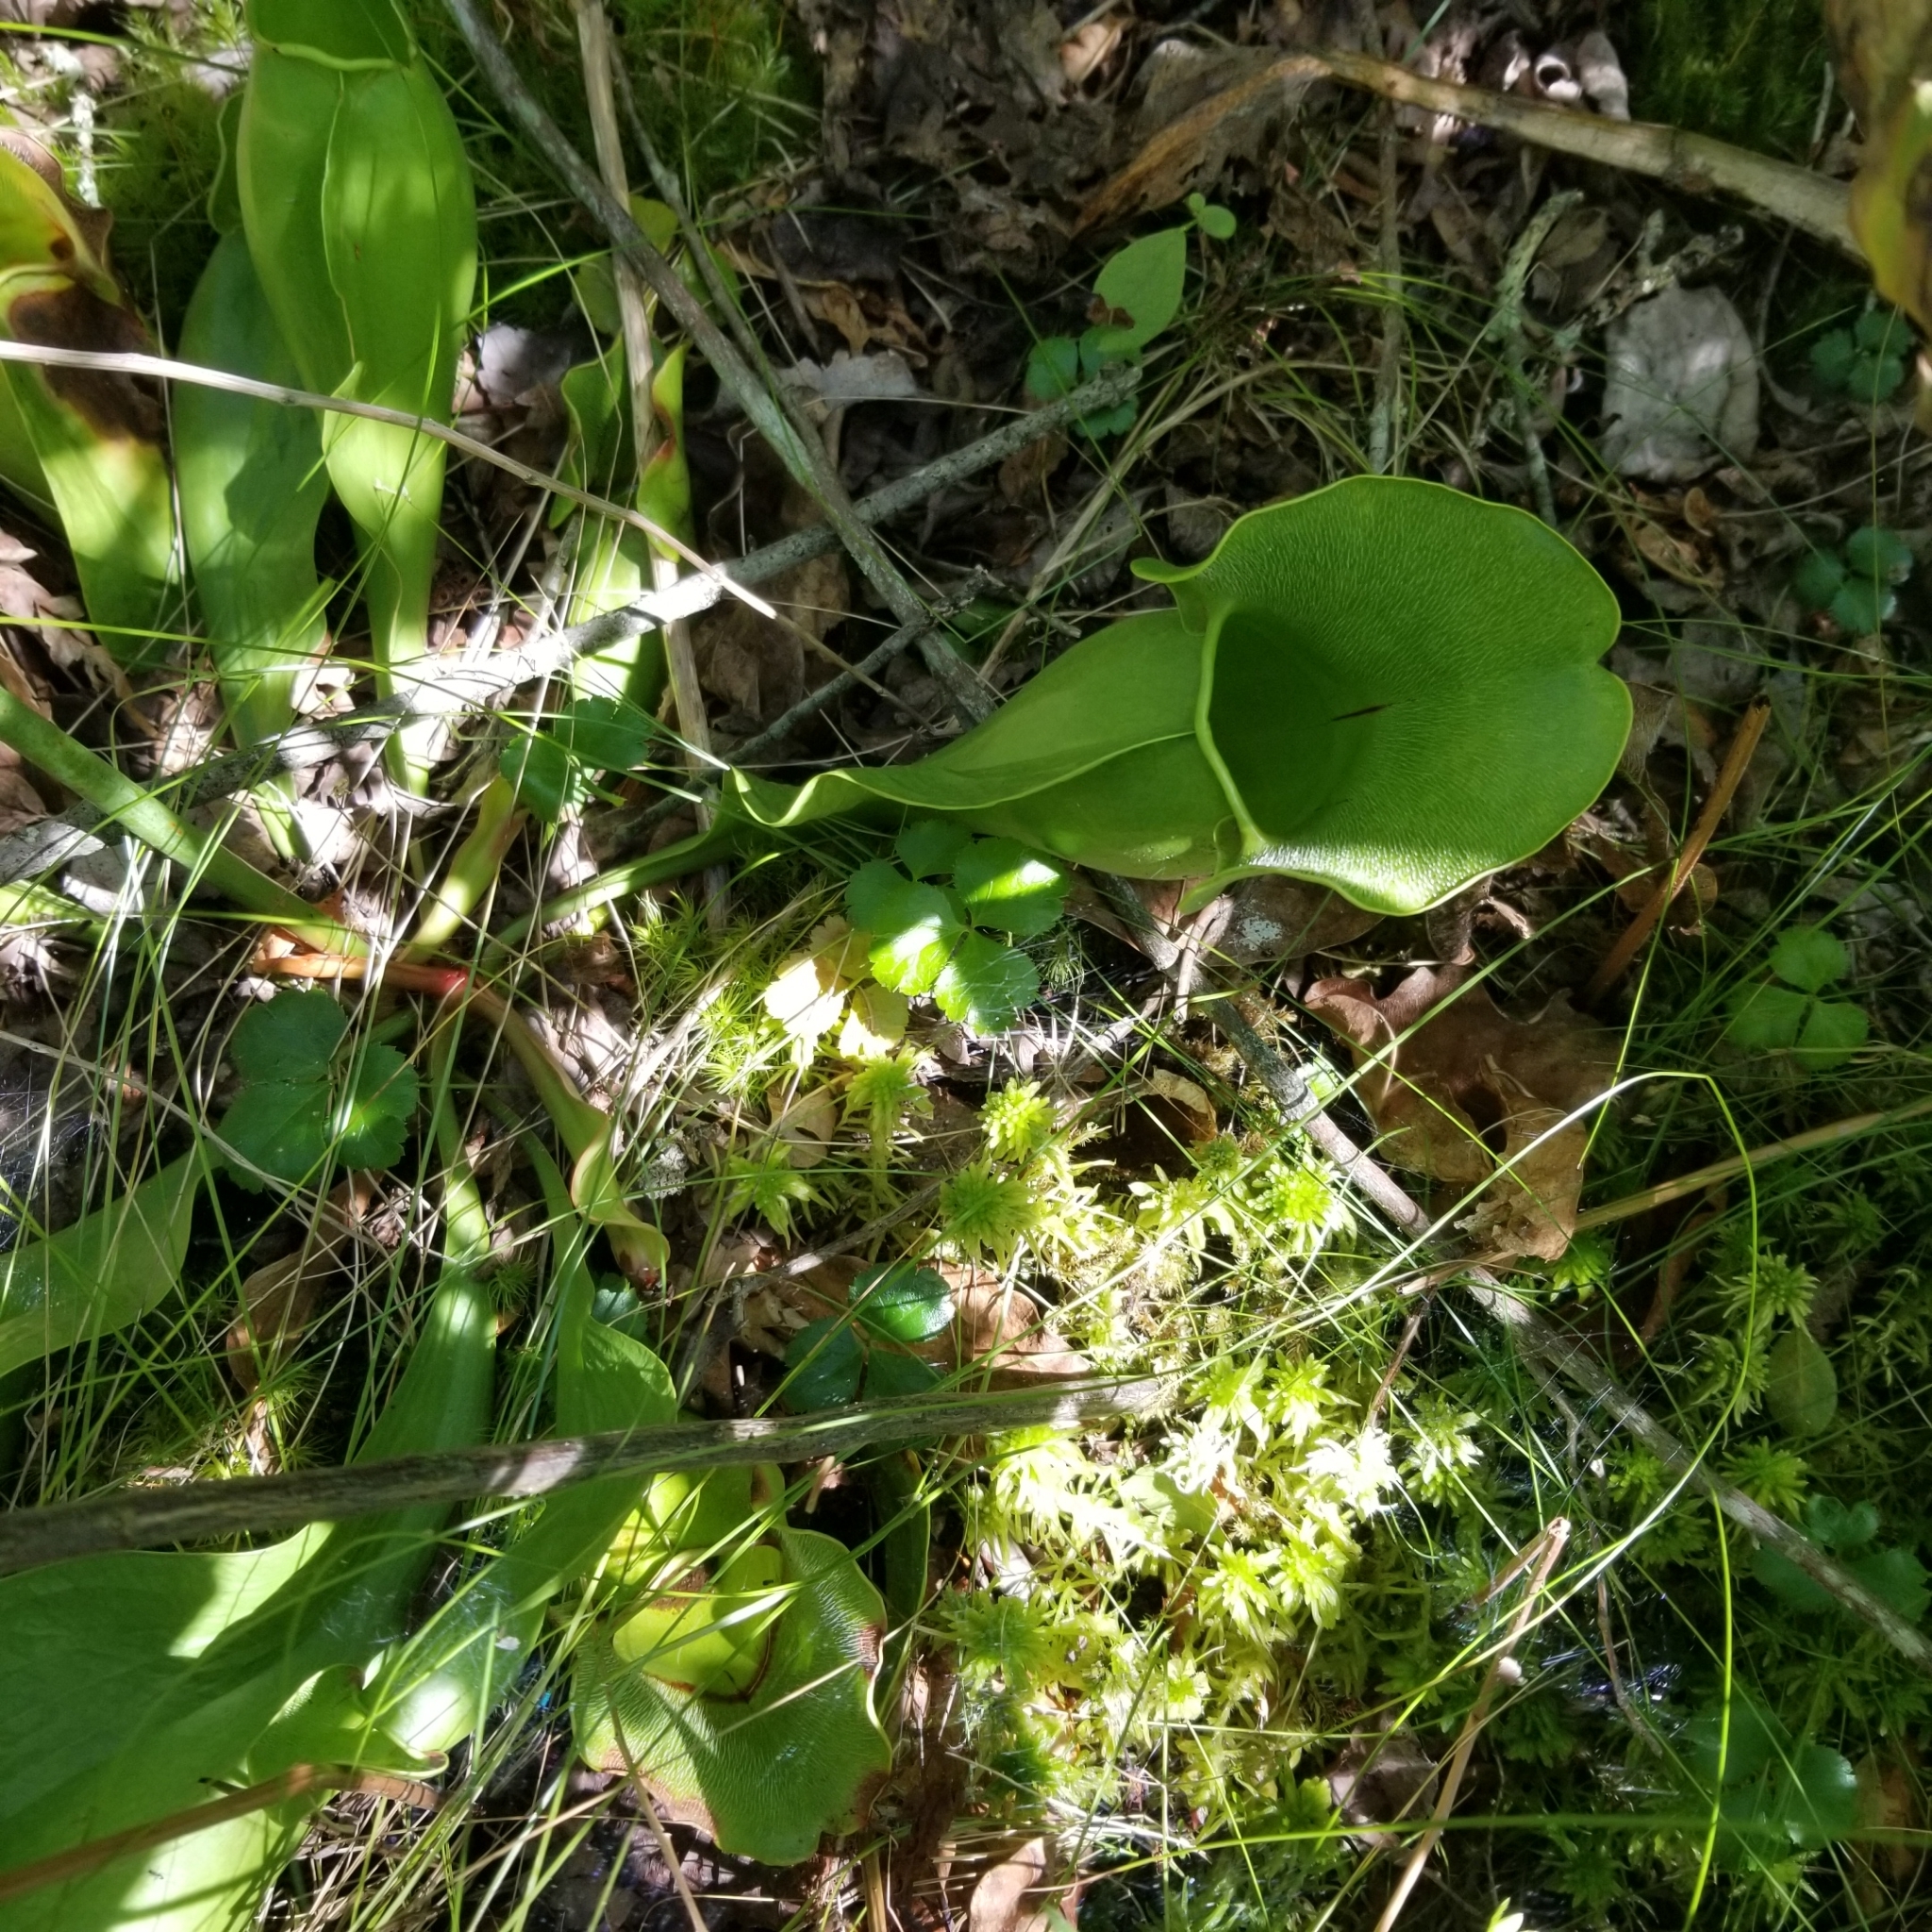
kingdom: Plantae
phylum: Tracheophyta
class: Magnoliopsida
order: Ericales
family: Sarraceniaceae
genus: Sarracenia
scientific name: Sarracenia purpurea
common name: Pitcherplant
